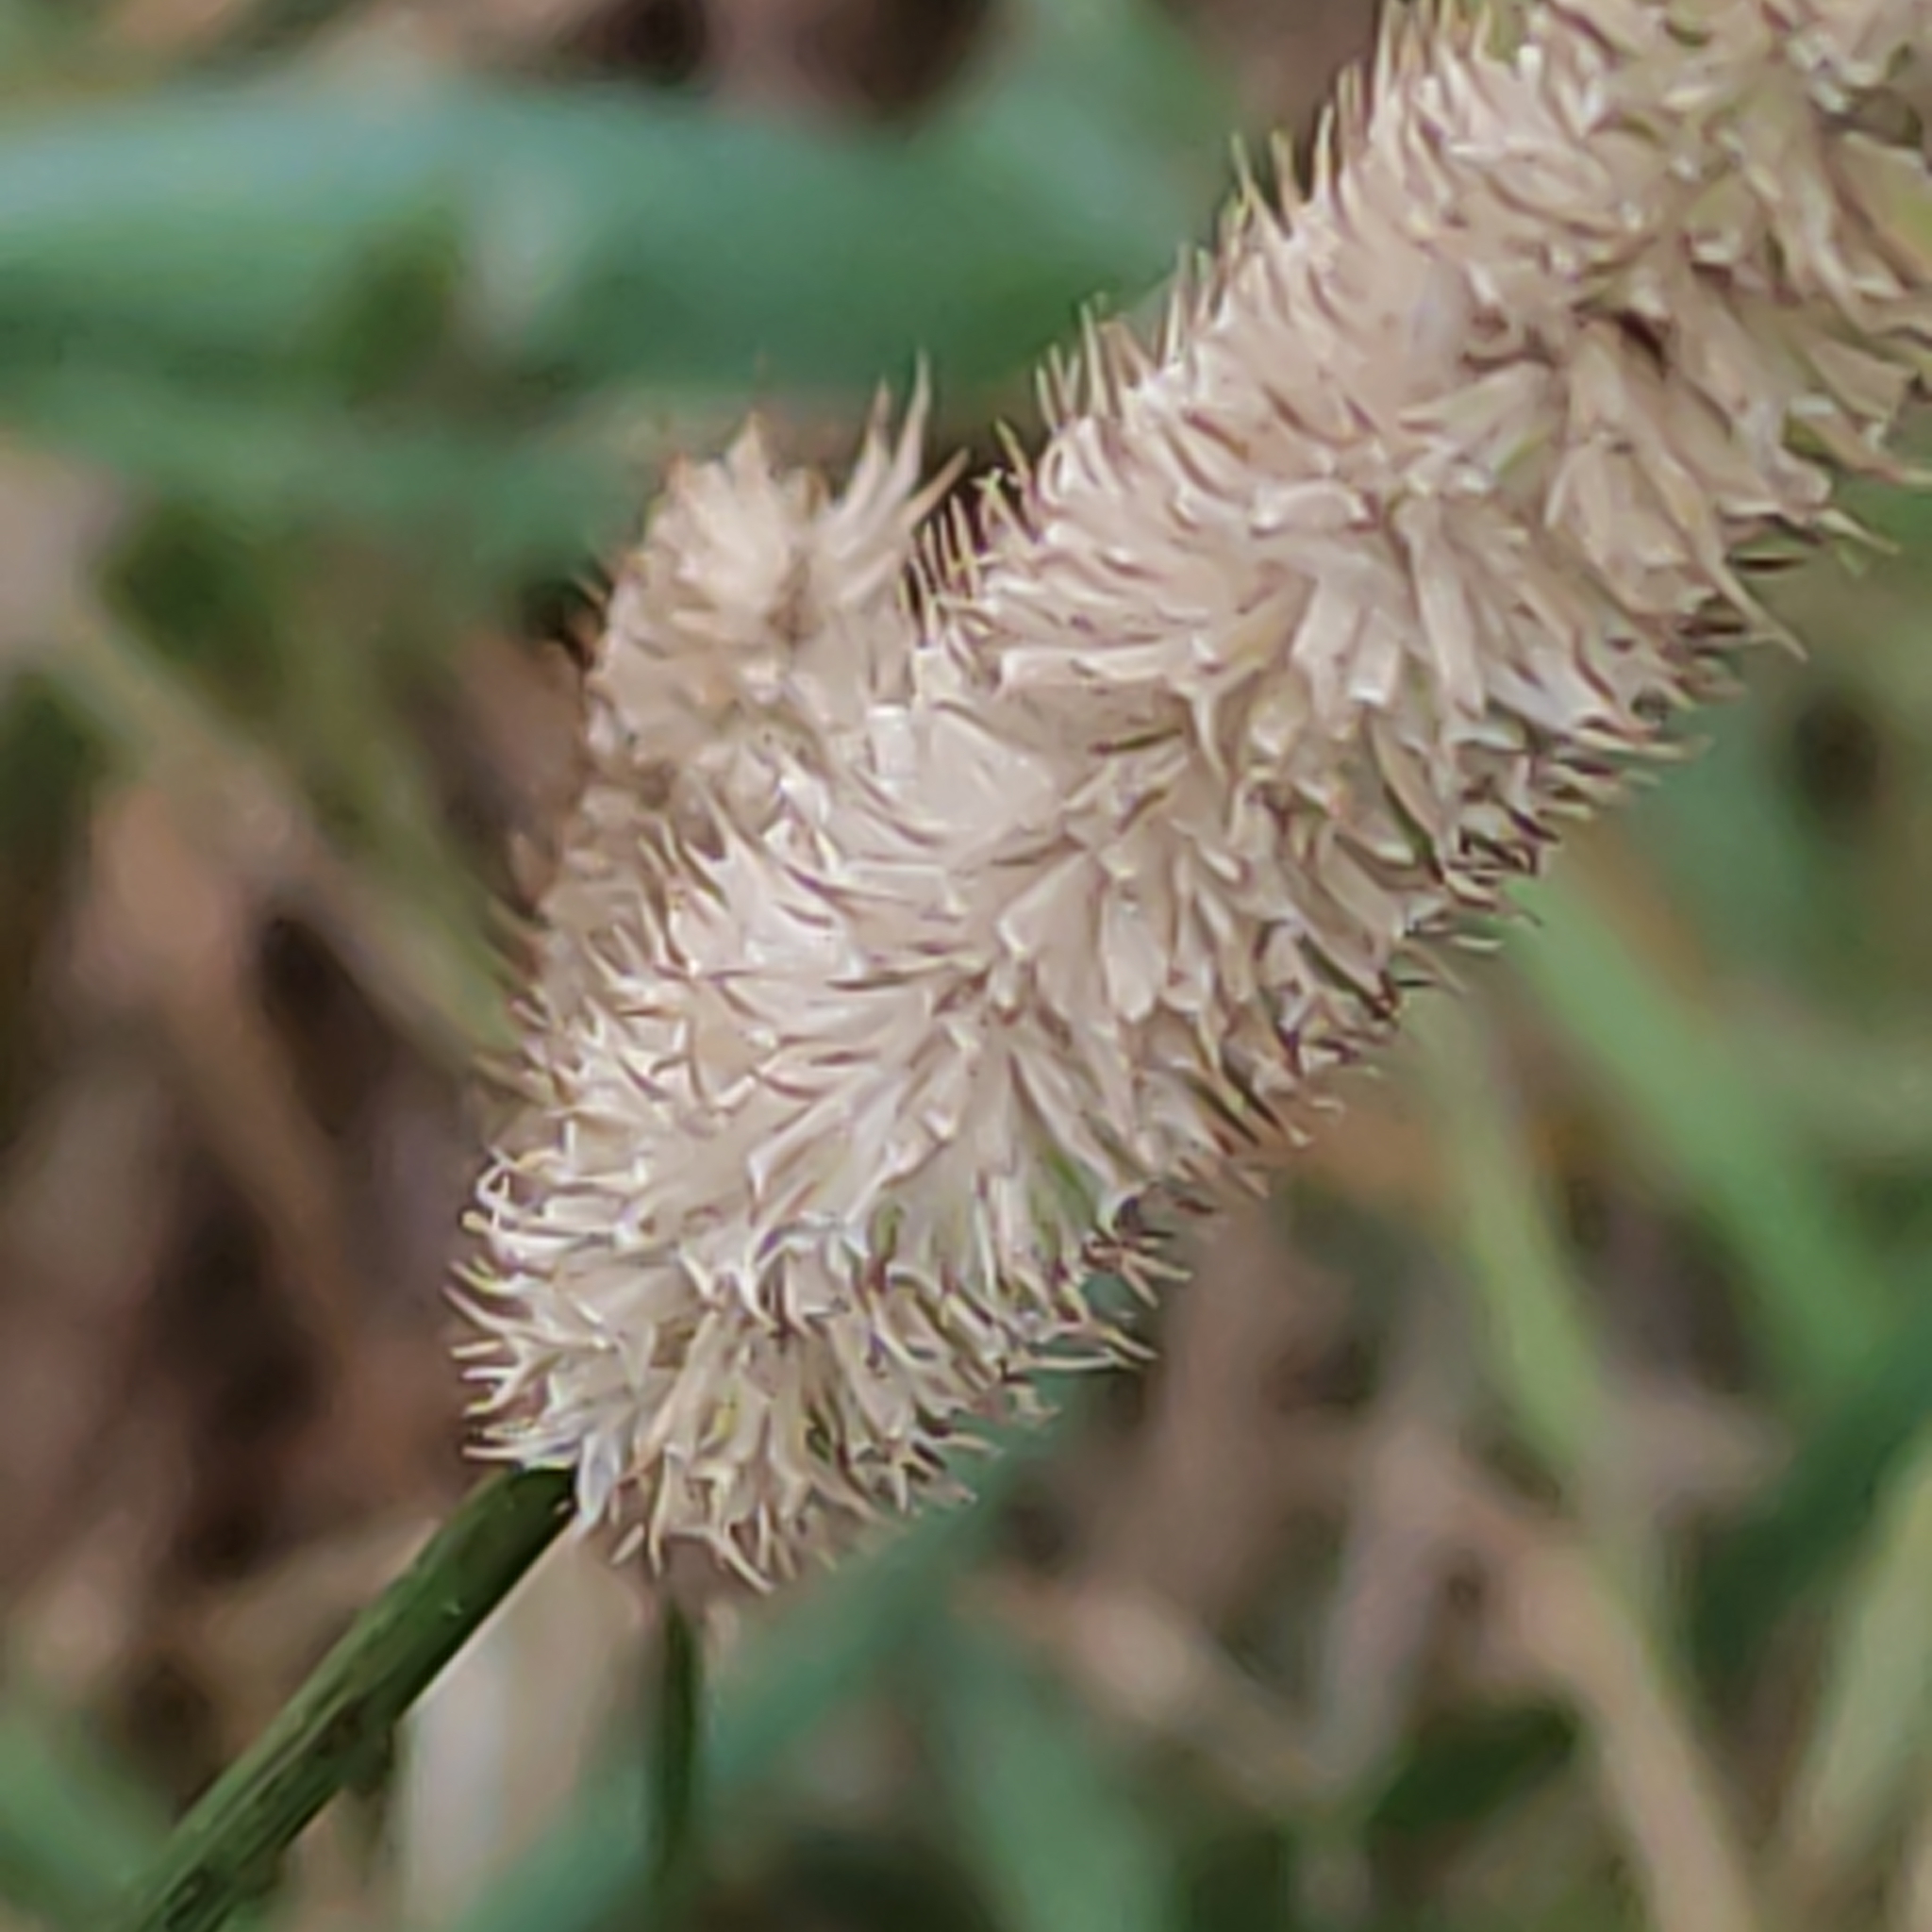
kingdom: Plantae
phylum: Tracheophyta
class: Liliopsida
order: Poales
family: Poaceae
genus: Phleum
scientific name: Phleum pratense
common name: Timothy grass
